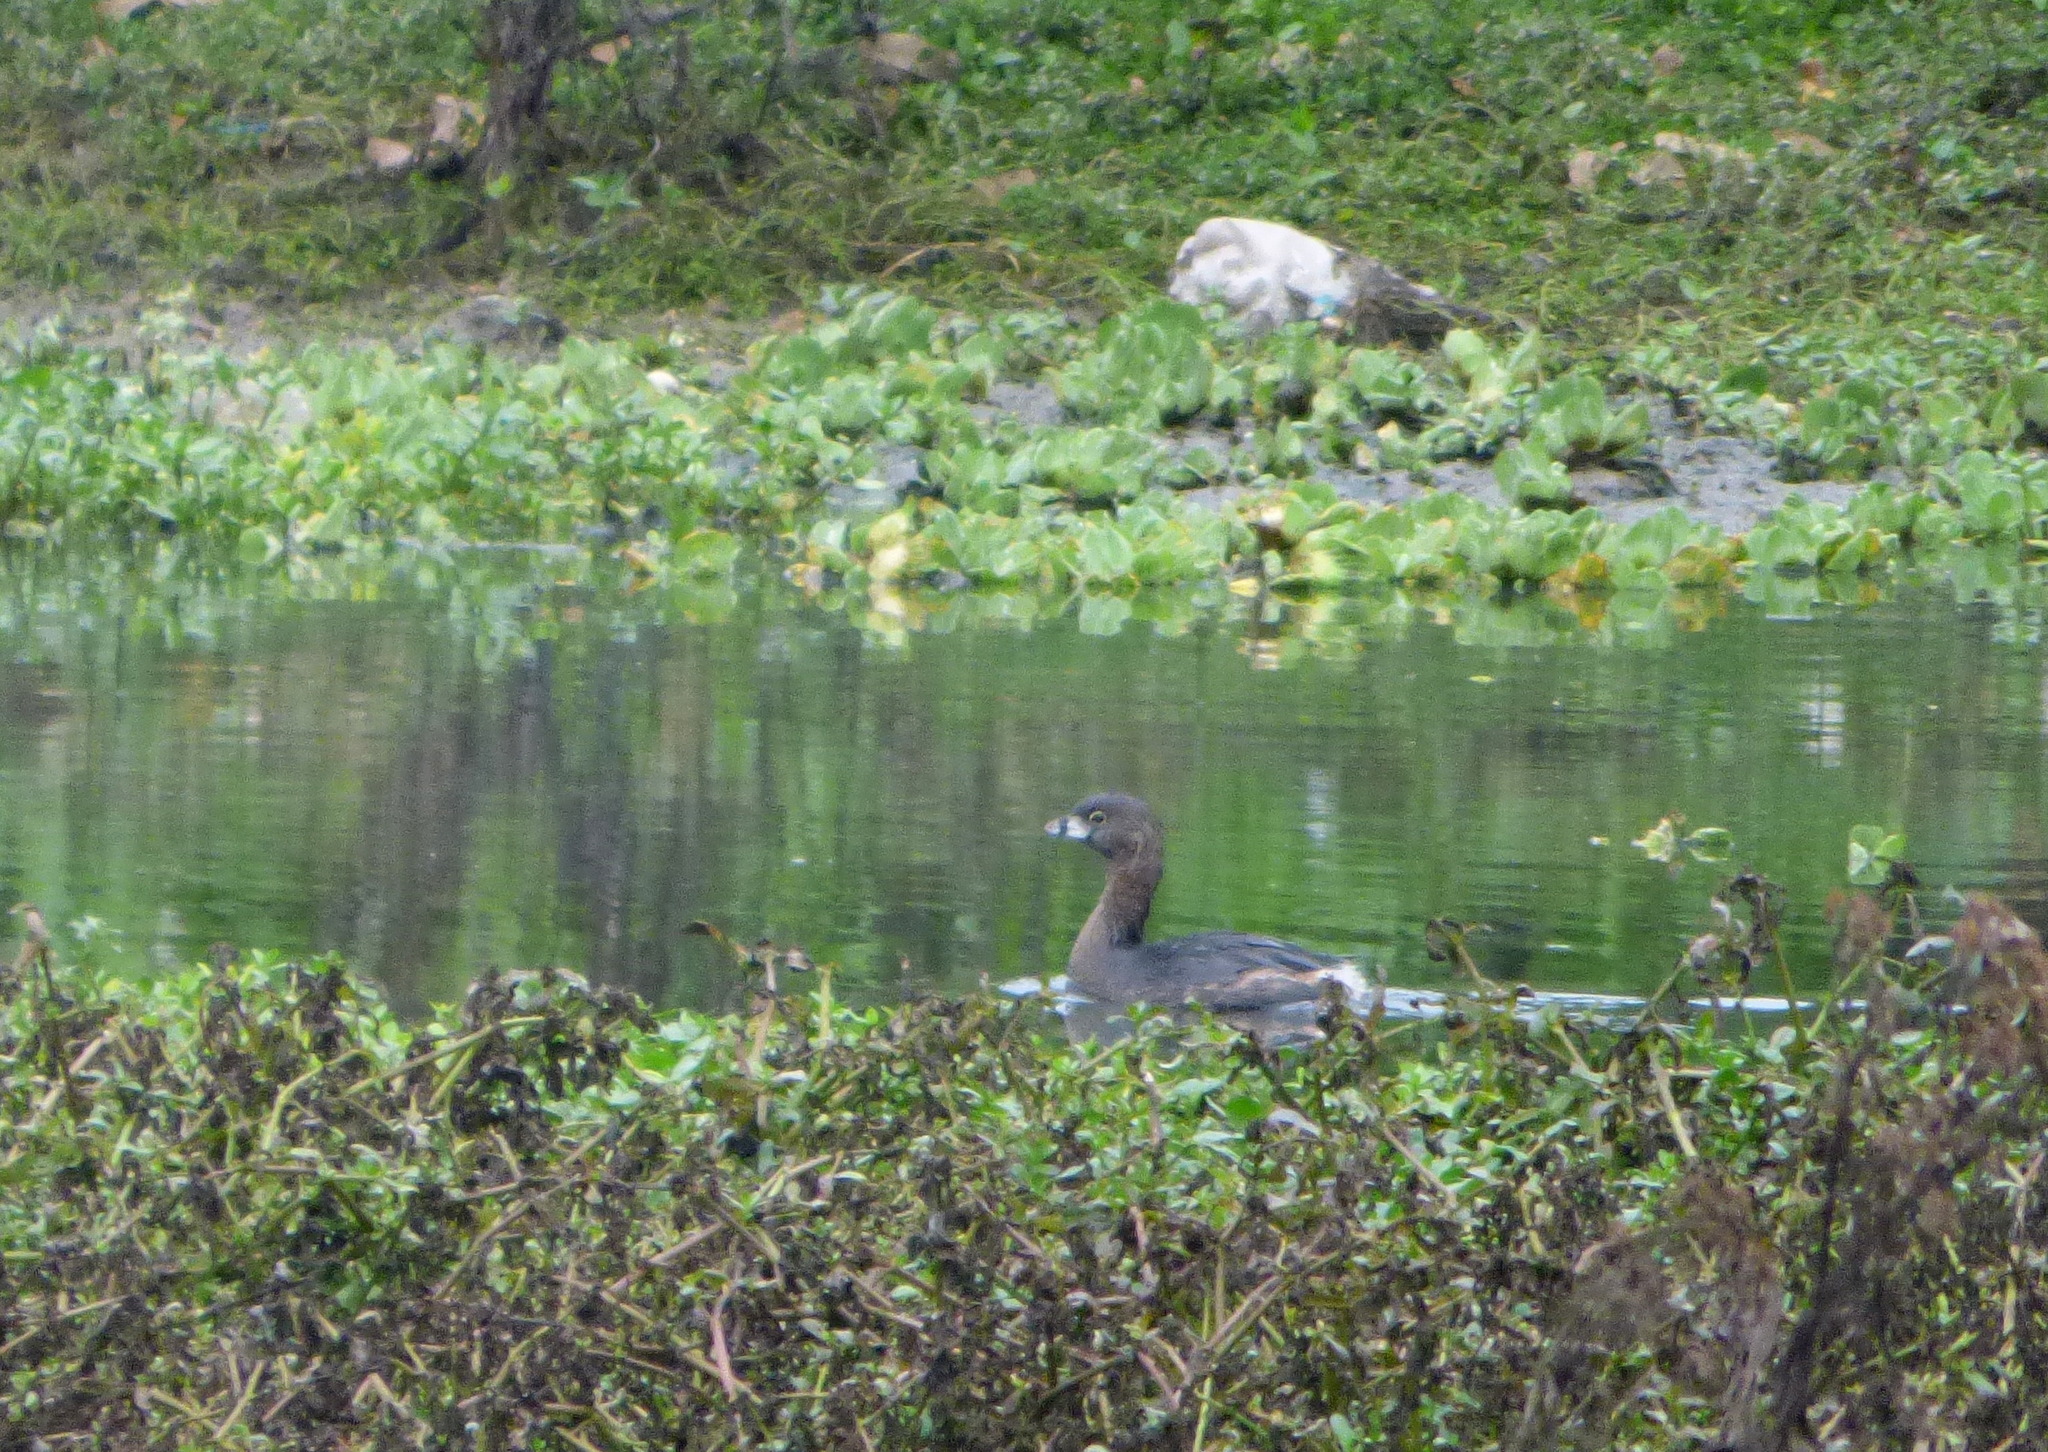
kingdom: Animalia
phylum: Chordata
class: Aves
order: Podicipediformes
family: Podicipedidae
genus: Podilymbus
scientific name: Podilymbus podiceps
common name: Pied-billed grebe
